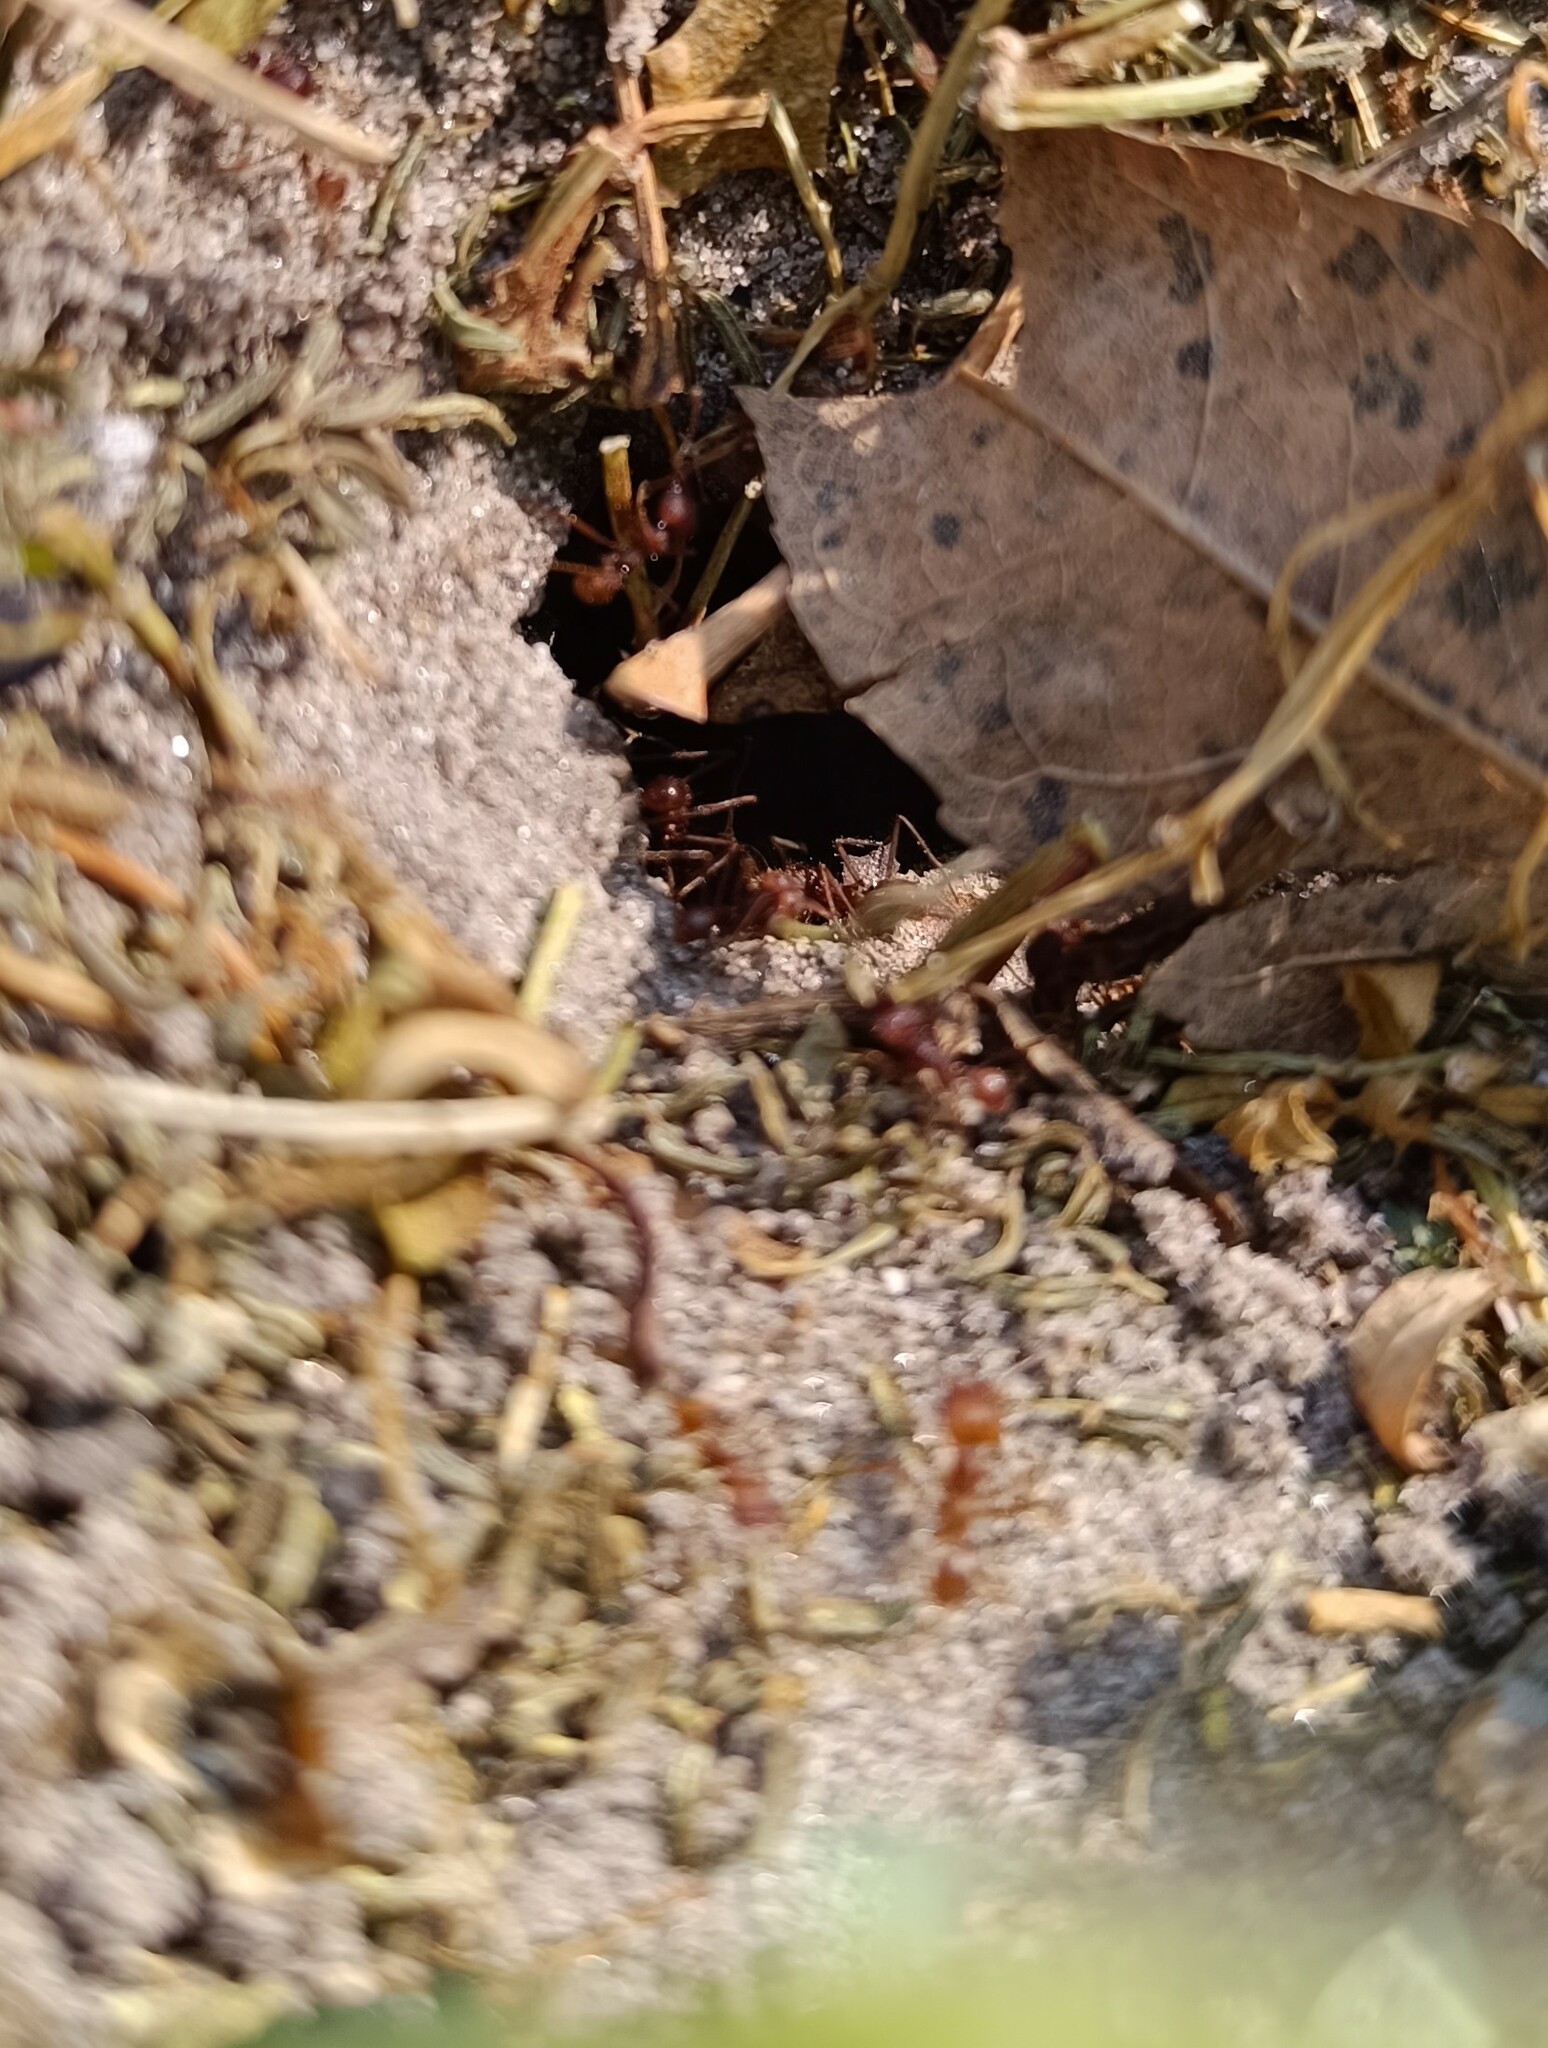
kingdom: Animalia
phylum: Arthropoda
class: Insecta
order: Hymenoptera
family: Formicidae
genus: Atta
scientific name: Atta mexicana
